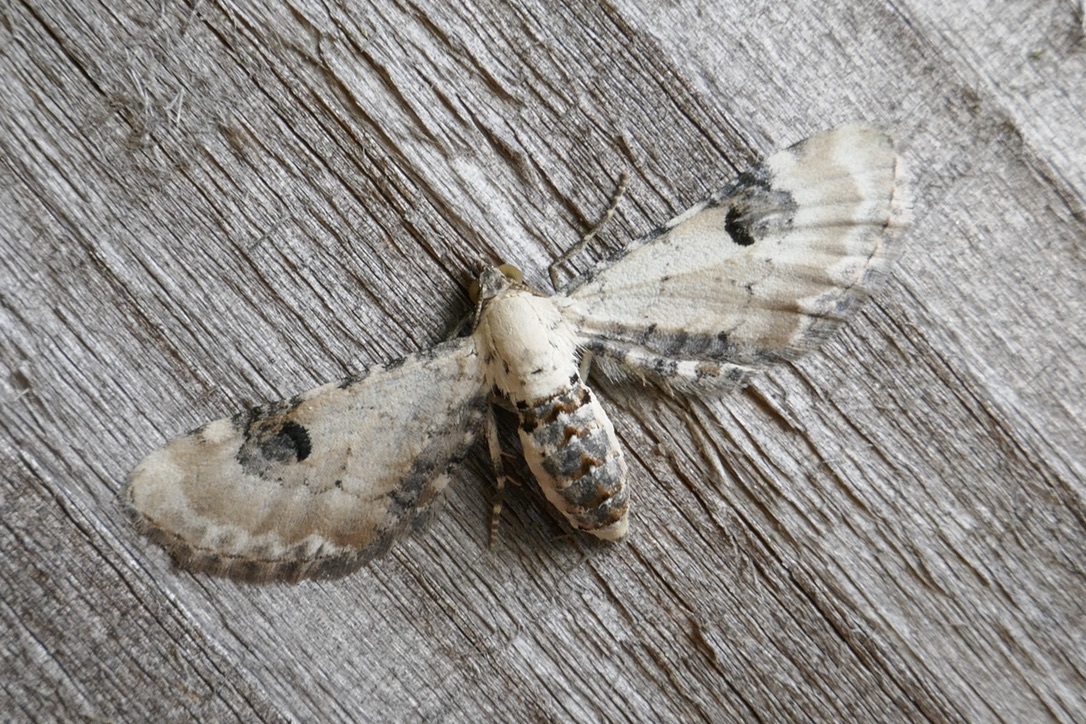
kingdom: Animalia
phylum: Arthropoda
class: Insecta
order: Lepidoptera
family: Geometridae
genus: Eupithecia
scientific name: Eupithecia centaureata
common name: Lime-speck pug
